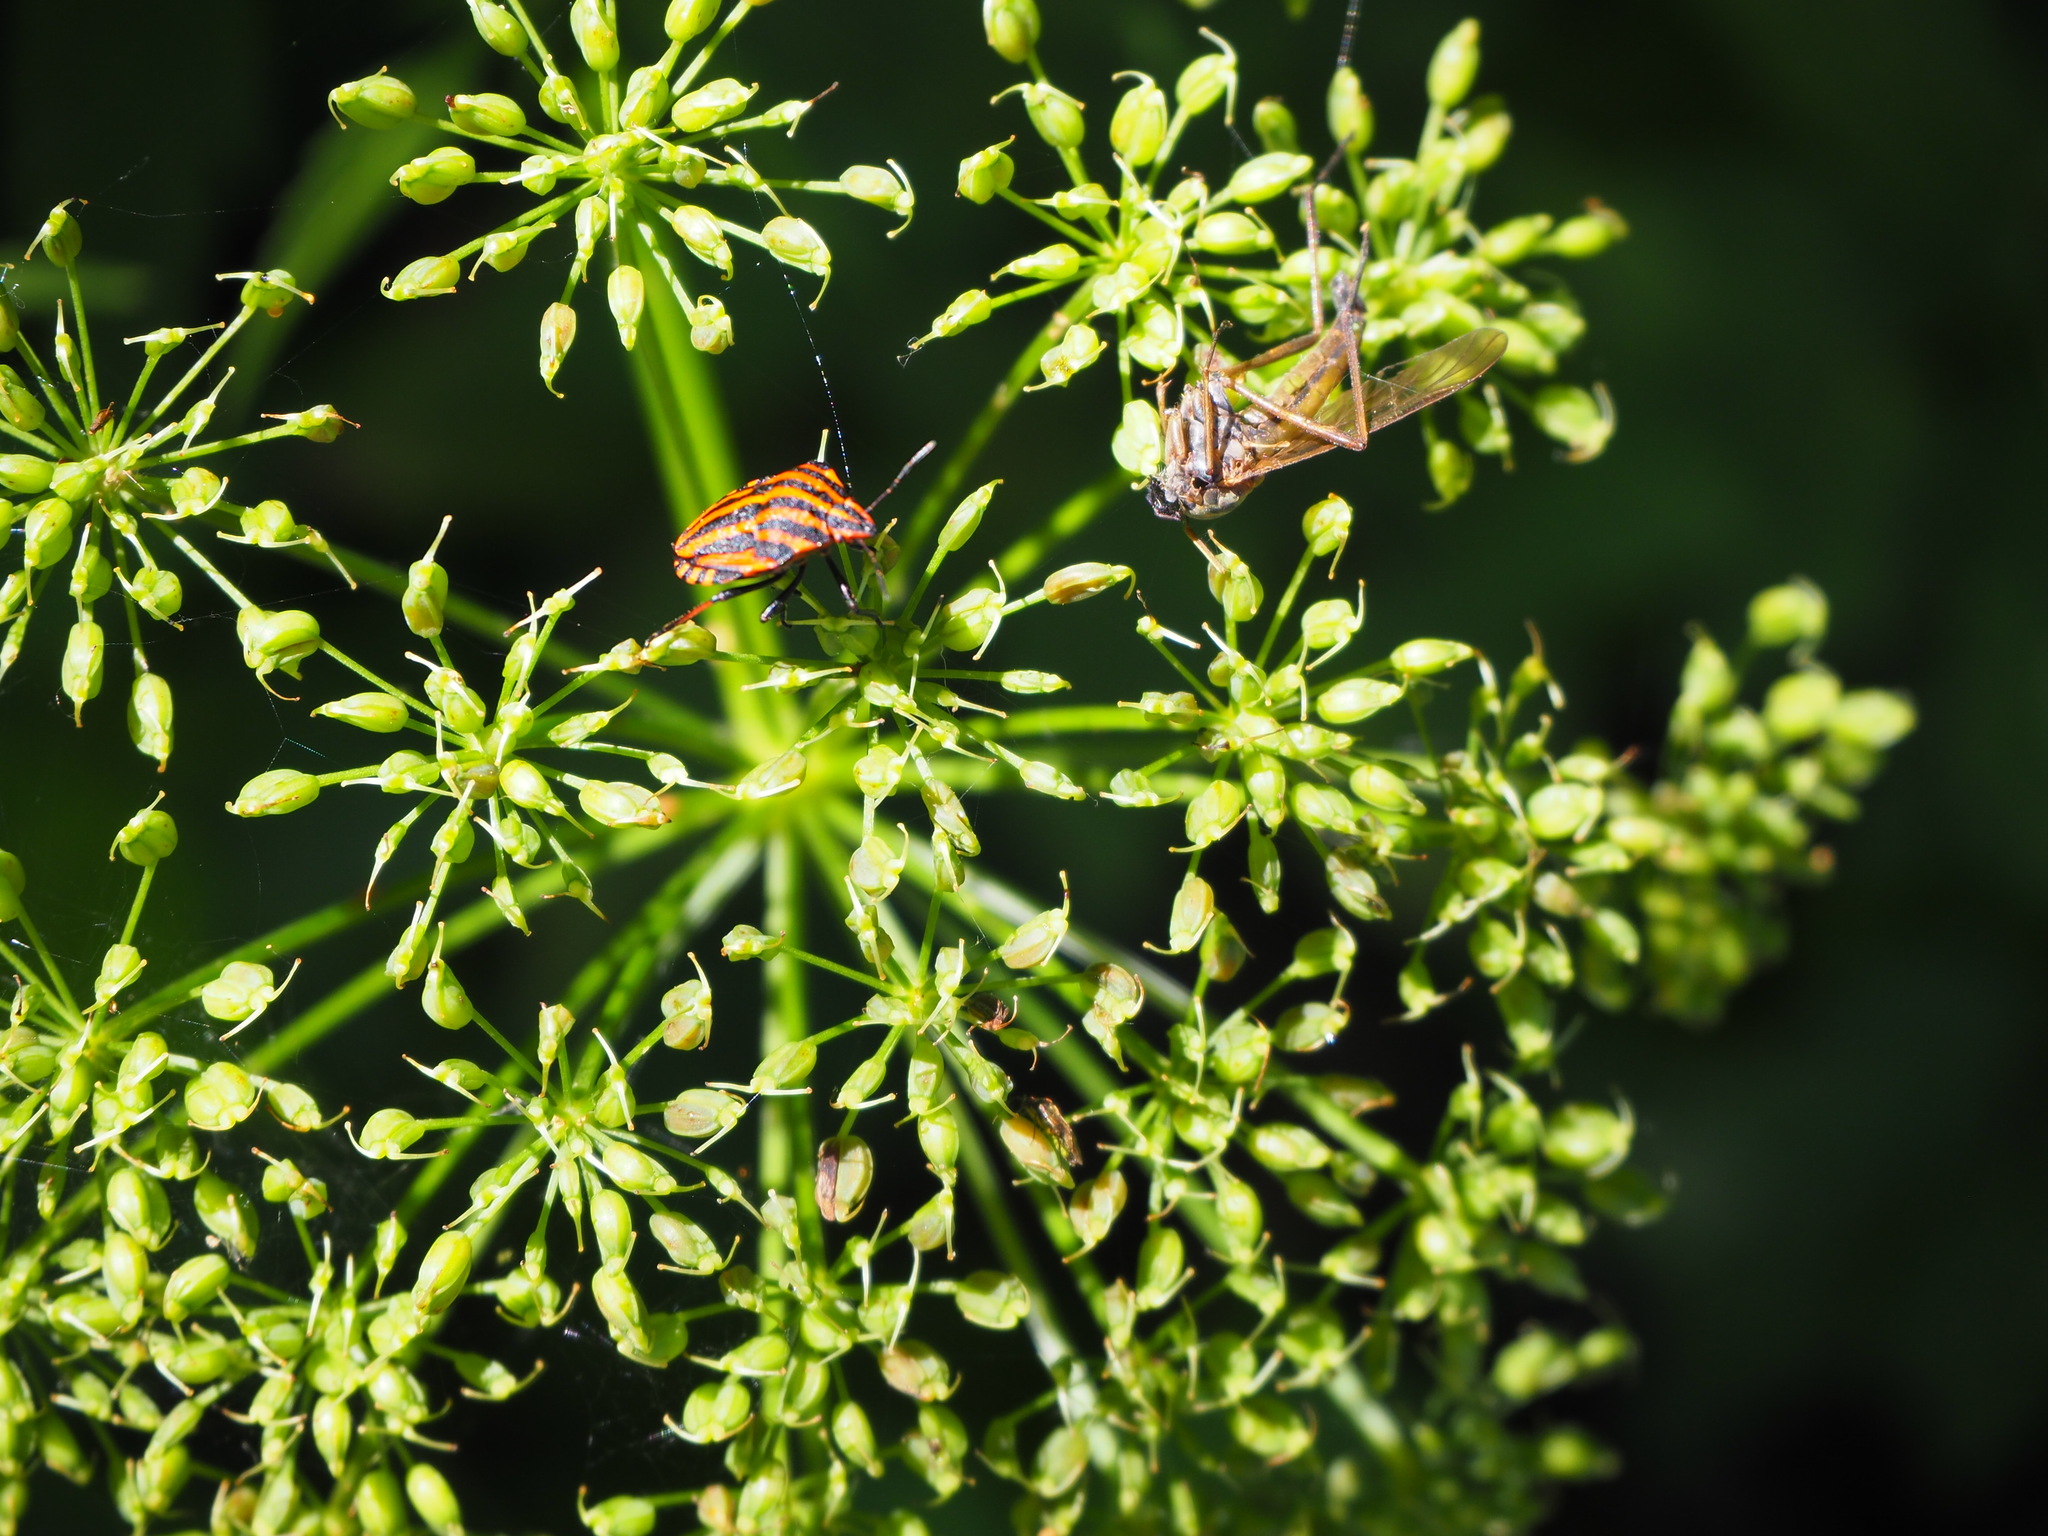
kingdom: Animalia
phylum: Arthropoda
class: Insecta
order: Hemiptera
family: Pentatomidae
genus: Graphosoma
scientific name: Graphosoma italicum
